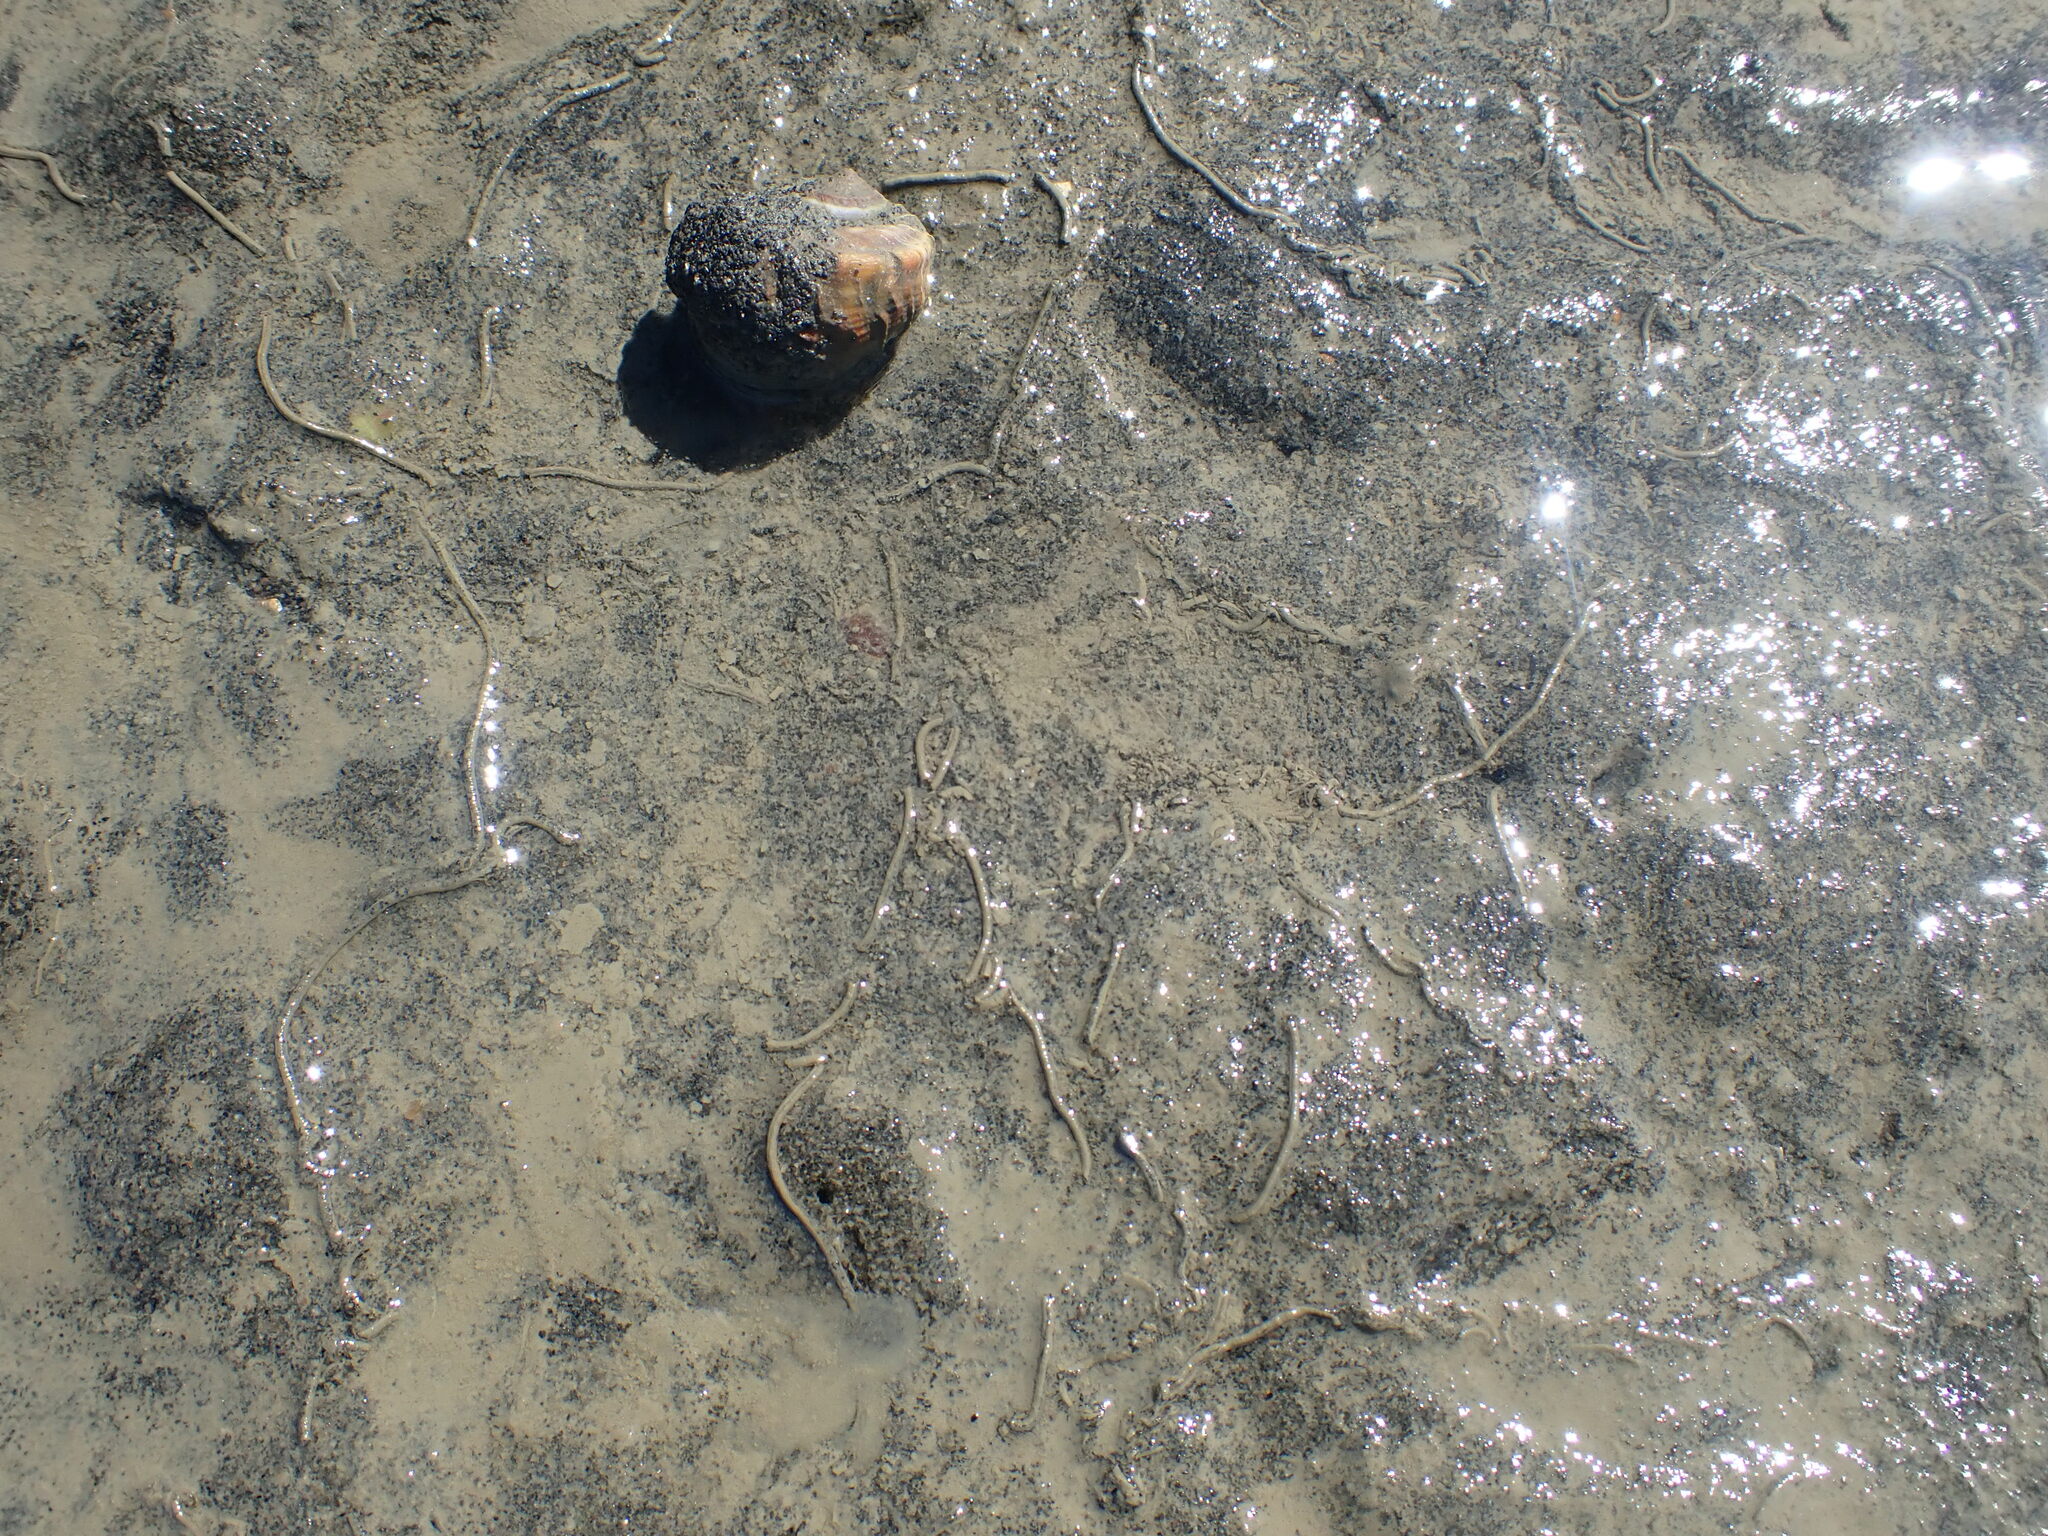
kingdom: Animalia
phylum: Mollusca
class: Gastropoda
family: Amphibolidae
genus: Amphibola
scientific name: Amphibola crenata
